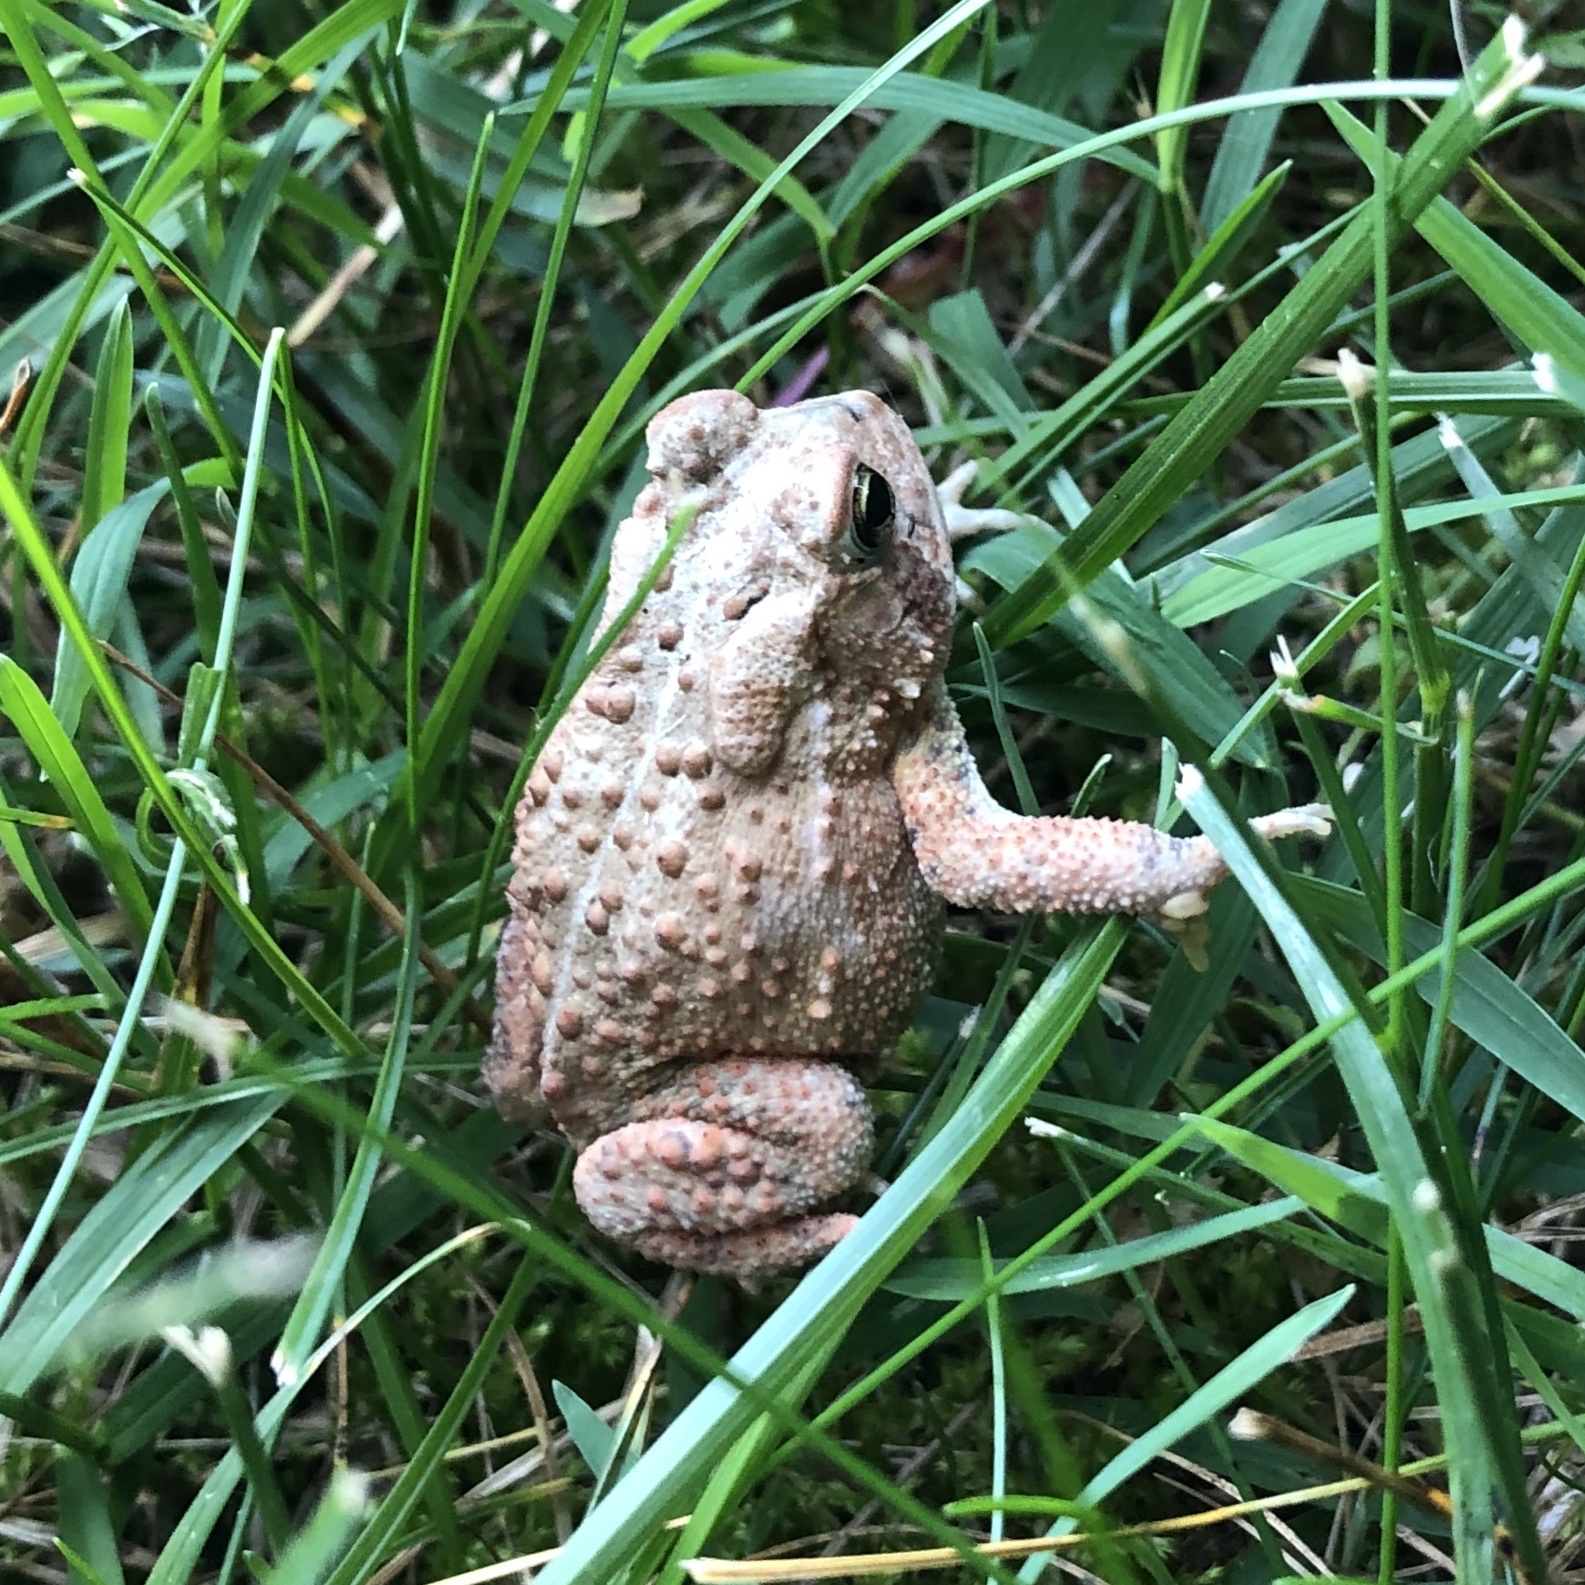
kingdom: Animalia
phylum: Chordata
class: Amphibia
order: Anura
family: Bufonidae
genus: Anaxyrus
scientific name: Anaxyrus americanus
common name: American toad
